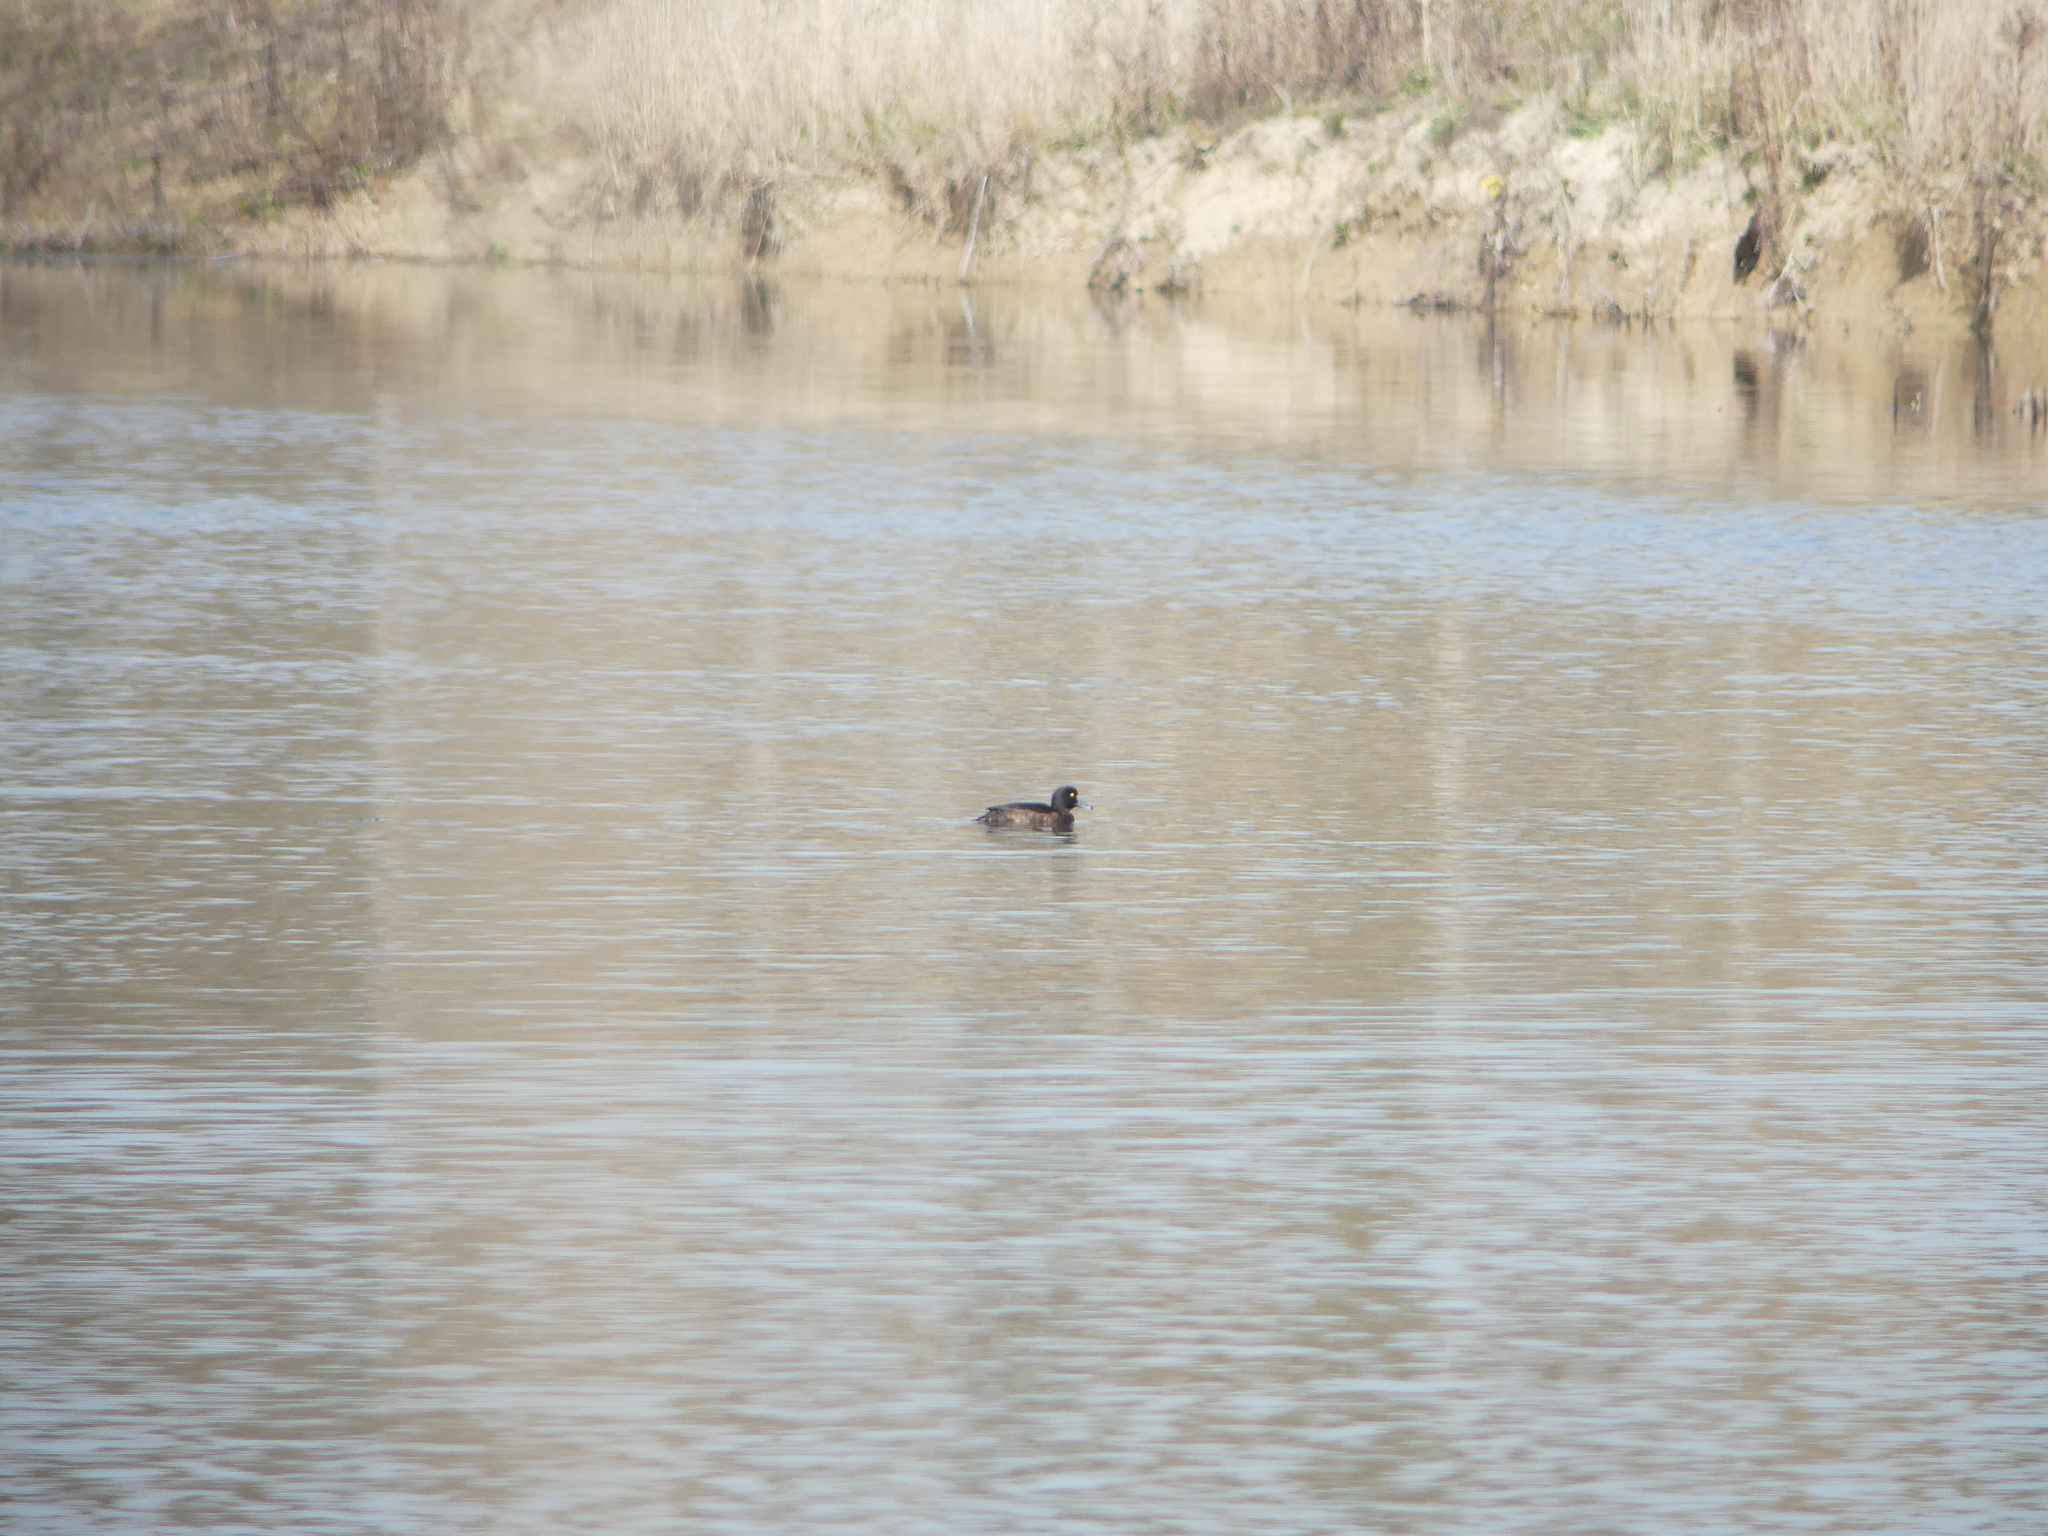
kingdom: Animalia
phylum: Chordata
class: Aves
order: Anseriformes
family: Anatidae
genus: Aythya
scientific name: Aythya fuligula
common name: Tufted duck
